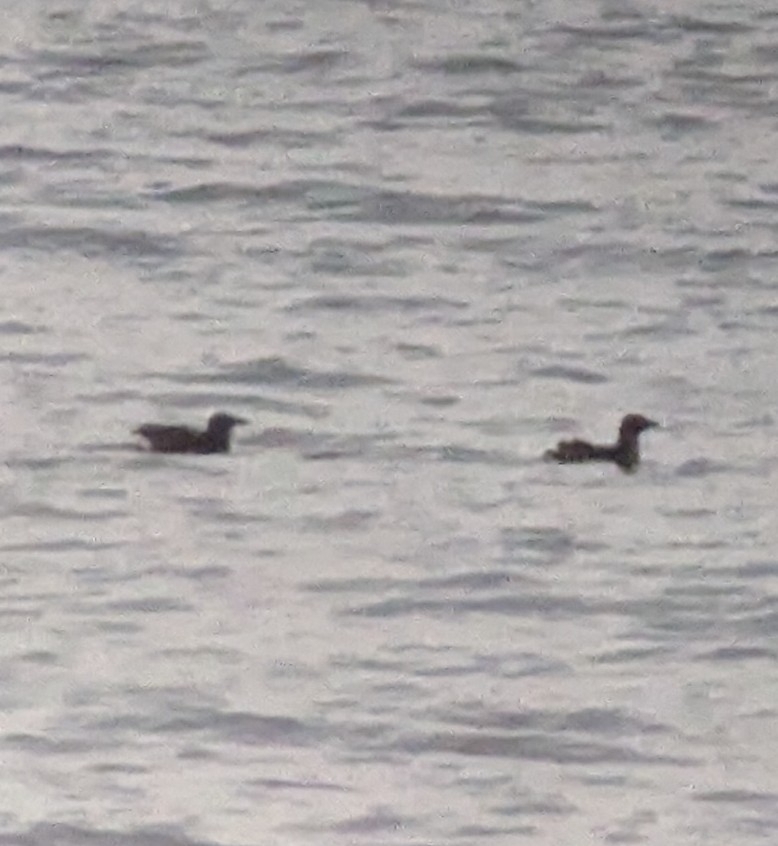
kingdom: Animalia
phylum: Chordata
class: Aves
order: Charadriiformes
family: Alcidae
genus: Cerorhinca
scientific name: Cerorhinca monocerata
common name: Rhinoceros auklet
